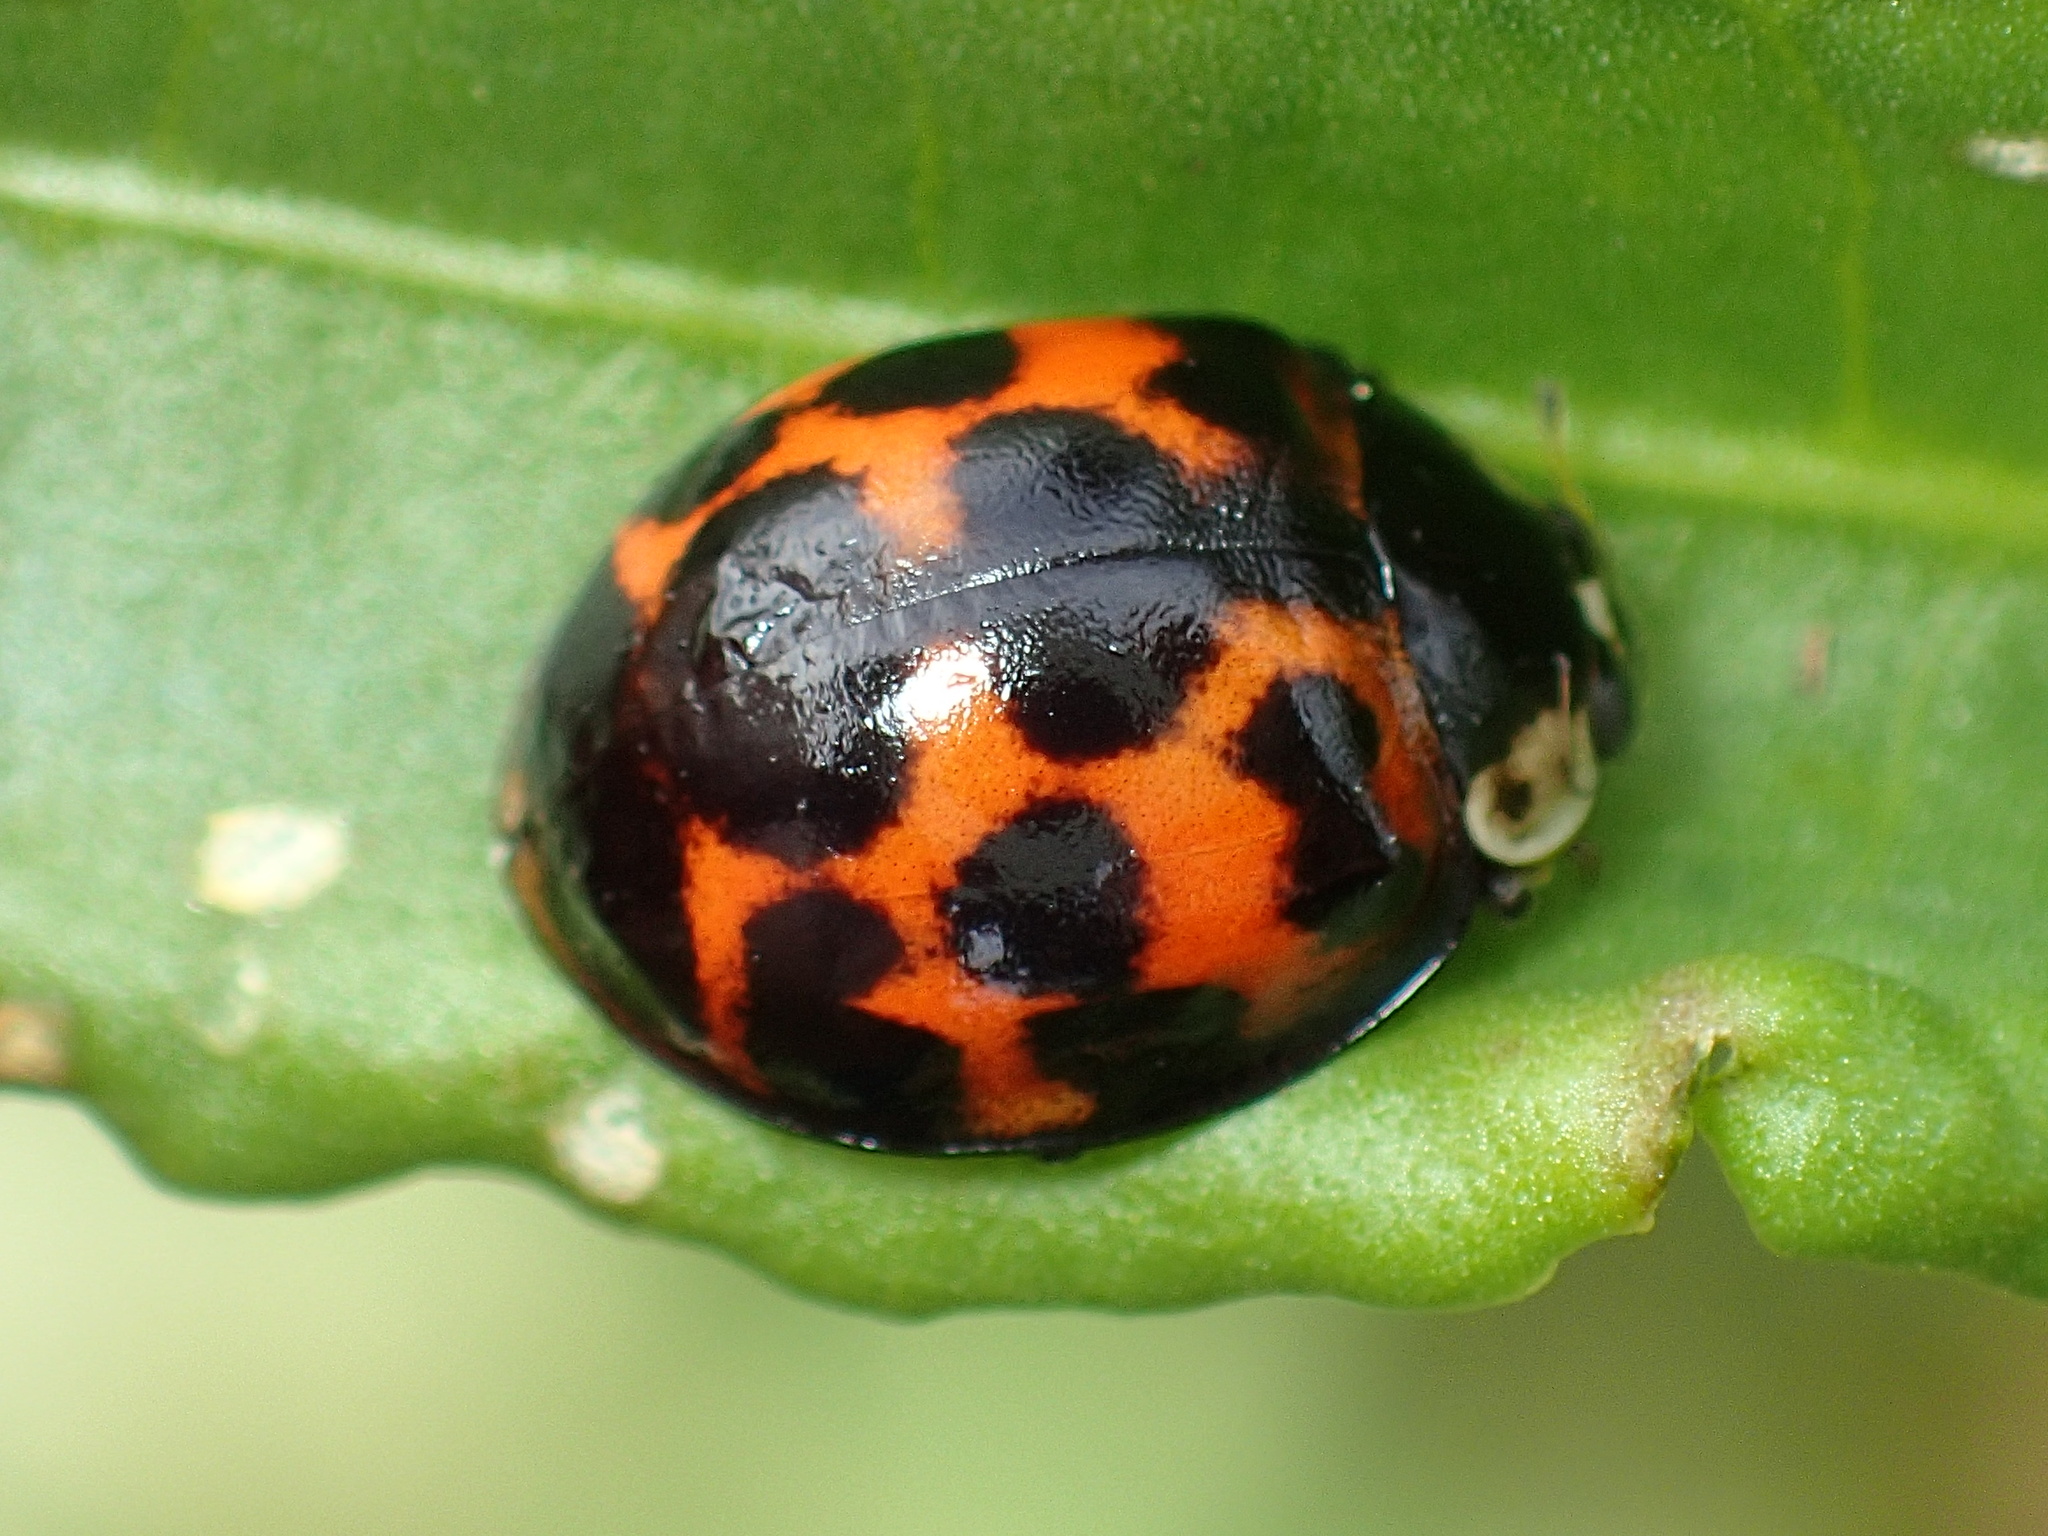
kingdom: Animalia
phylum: Arthropoda
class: Insecta
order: Coleoptera
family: Coccinellidae
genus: Harmonia
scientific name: Harmonia axyridis
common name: Harlequin ladybird
